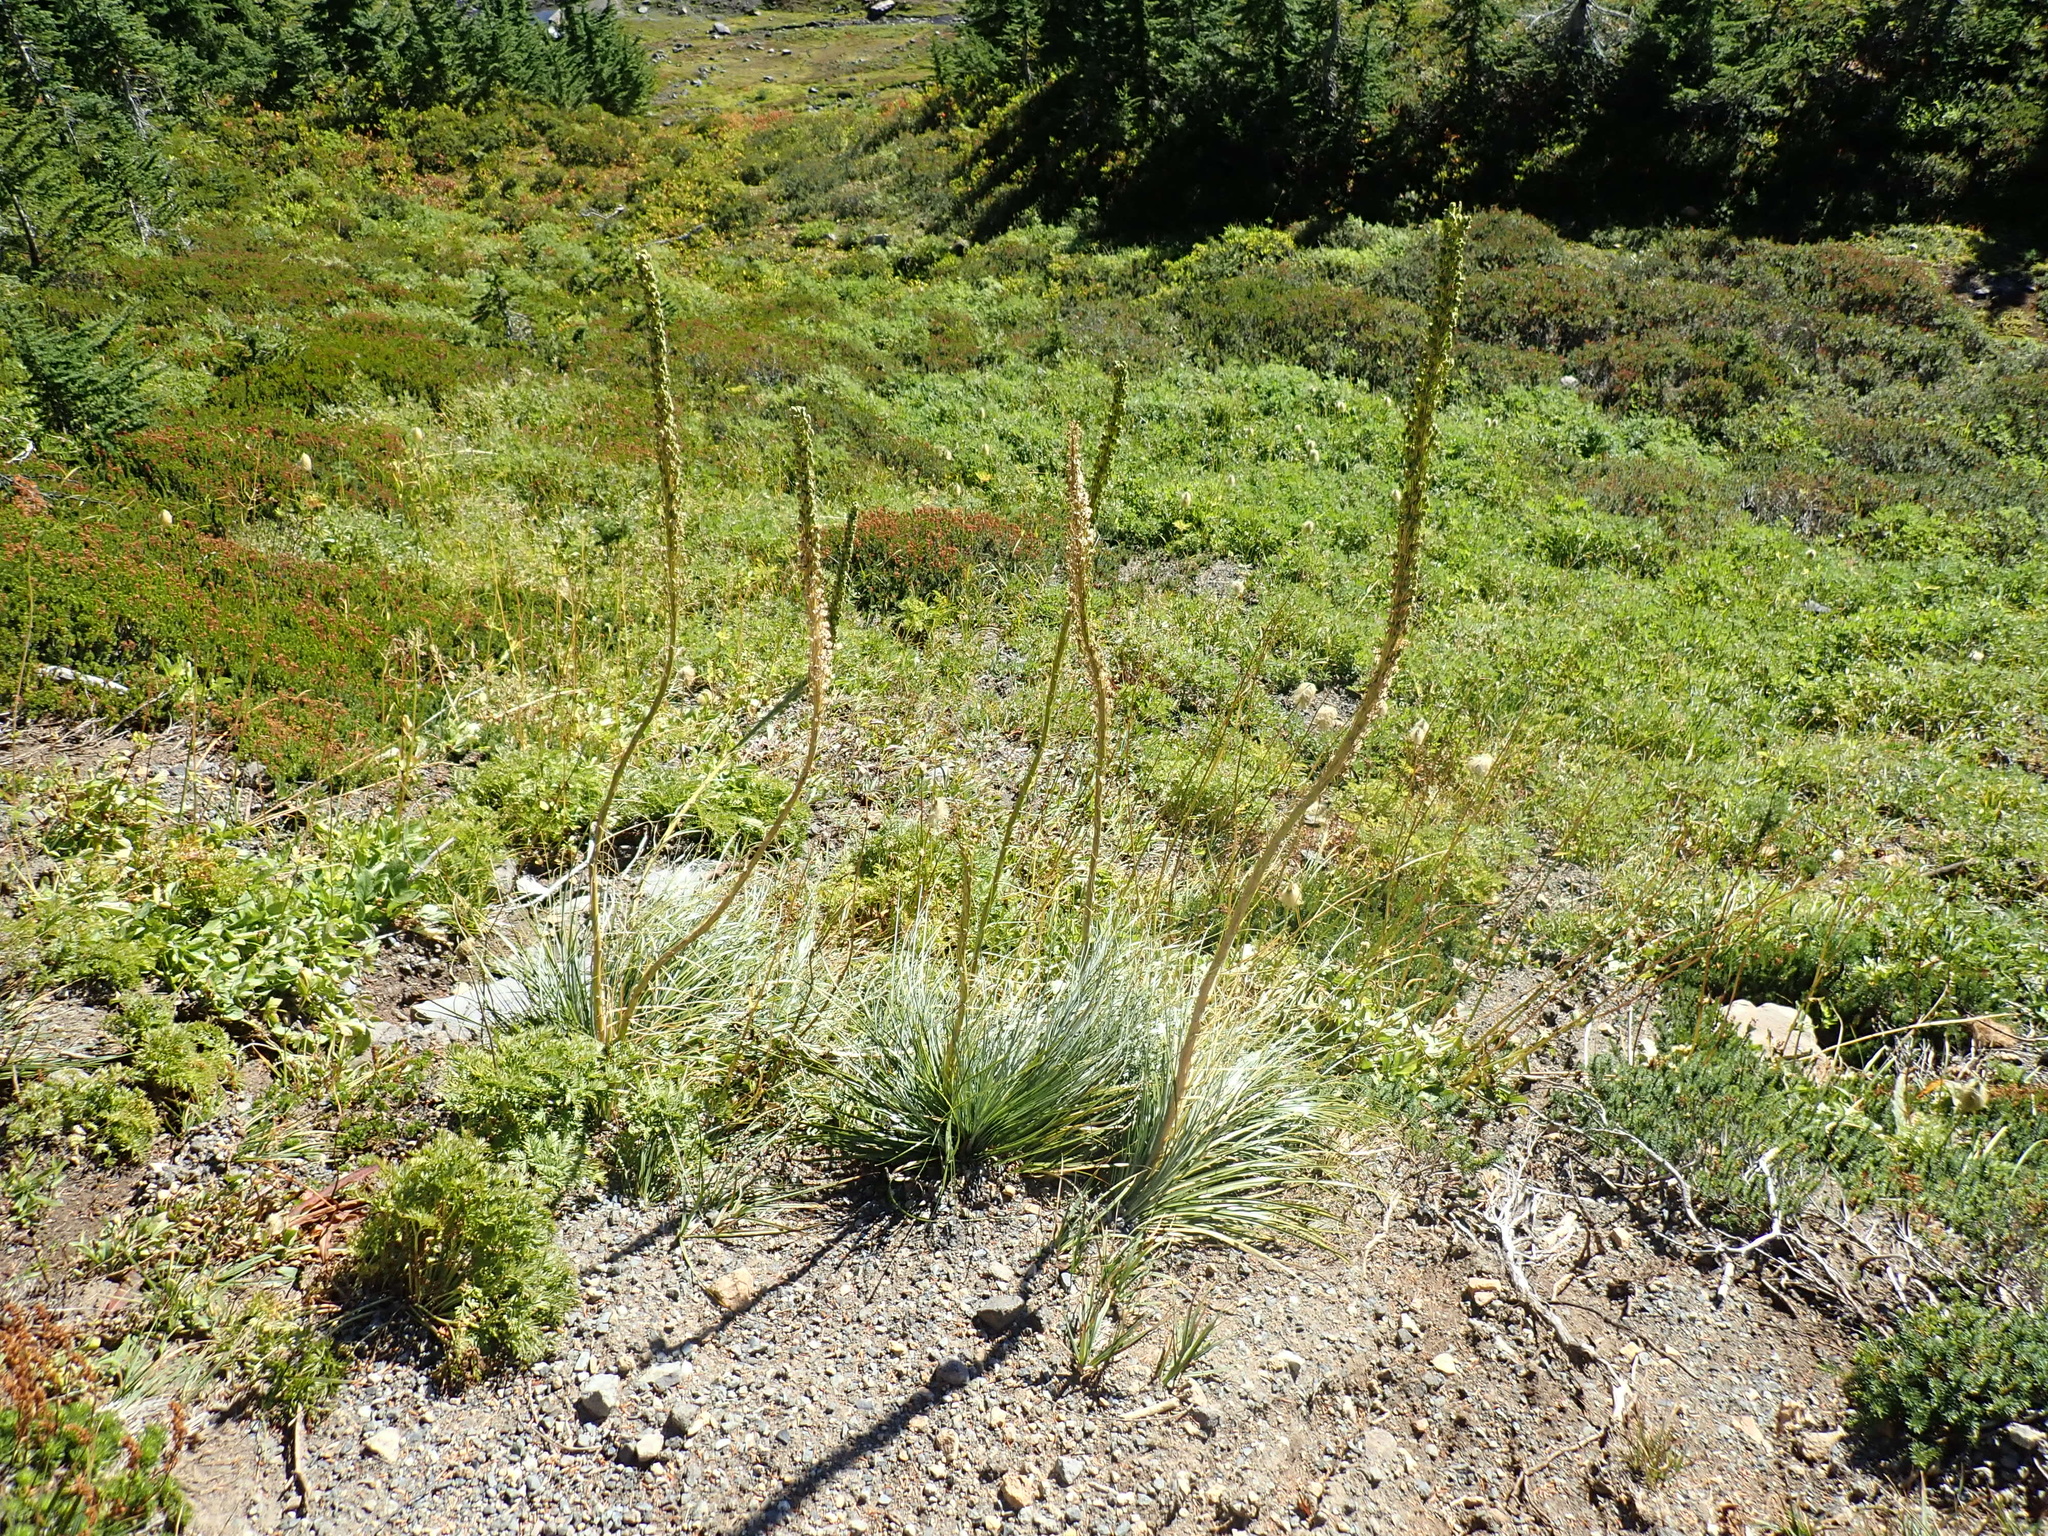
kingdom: Plantae
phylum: Tracheophyta
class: Liliopsida
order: Liliales
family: Melanthiaceae
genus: Xerophyllum
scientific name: Xerophyllum tenax
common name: Bear-grass
